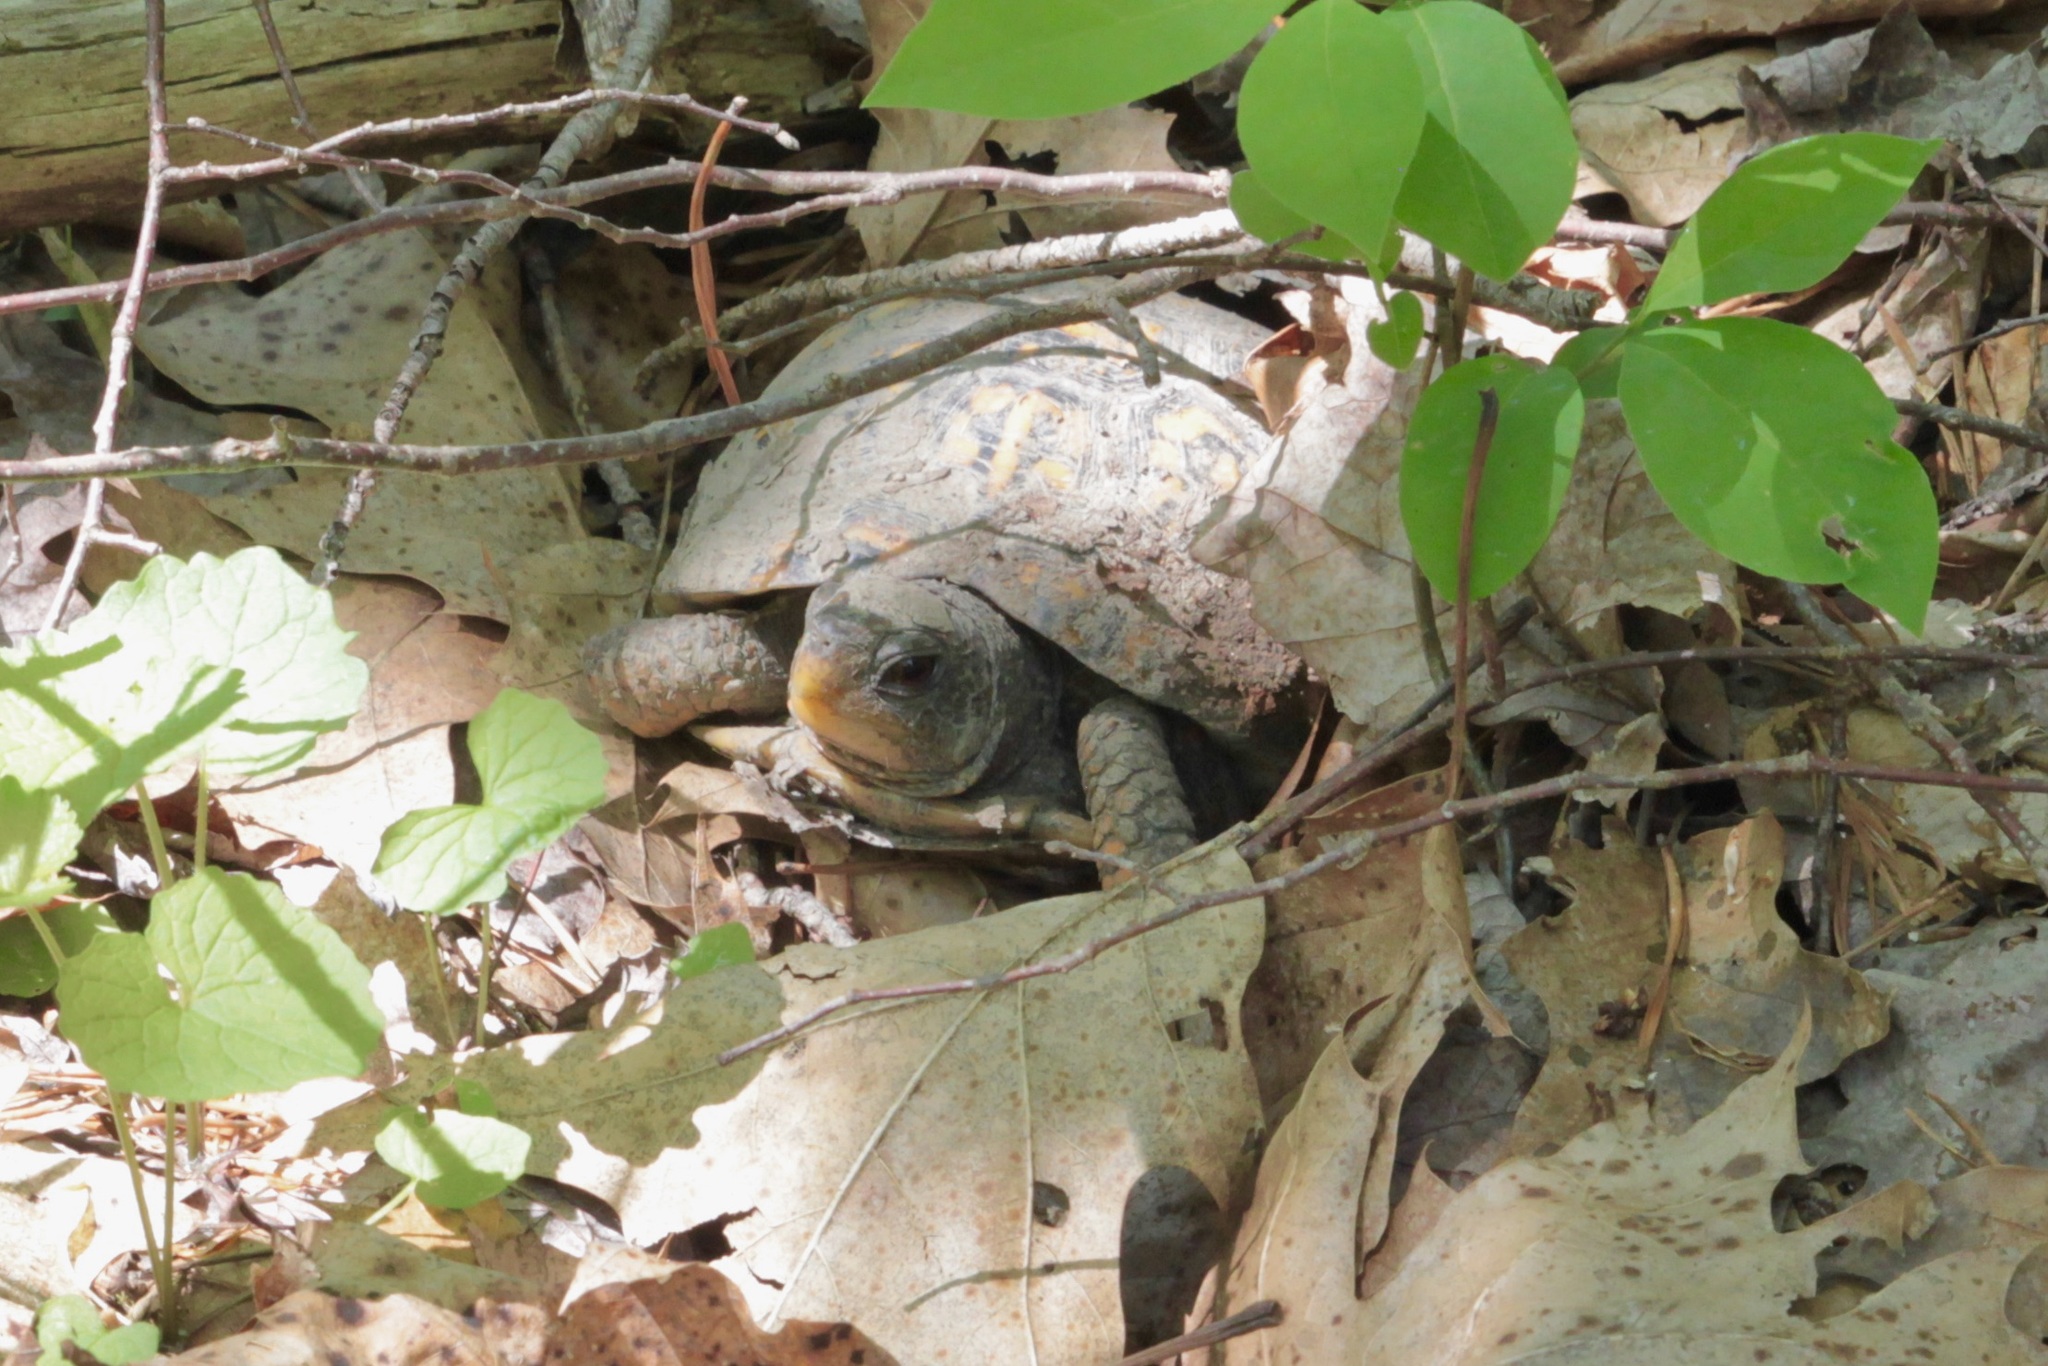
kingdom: Animalia
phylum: Chordata
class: Testudines
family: Emydidae
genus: Terrapene
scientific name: Terrapene carolina
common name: Common box turtle
